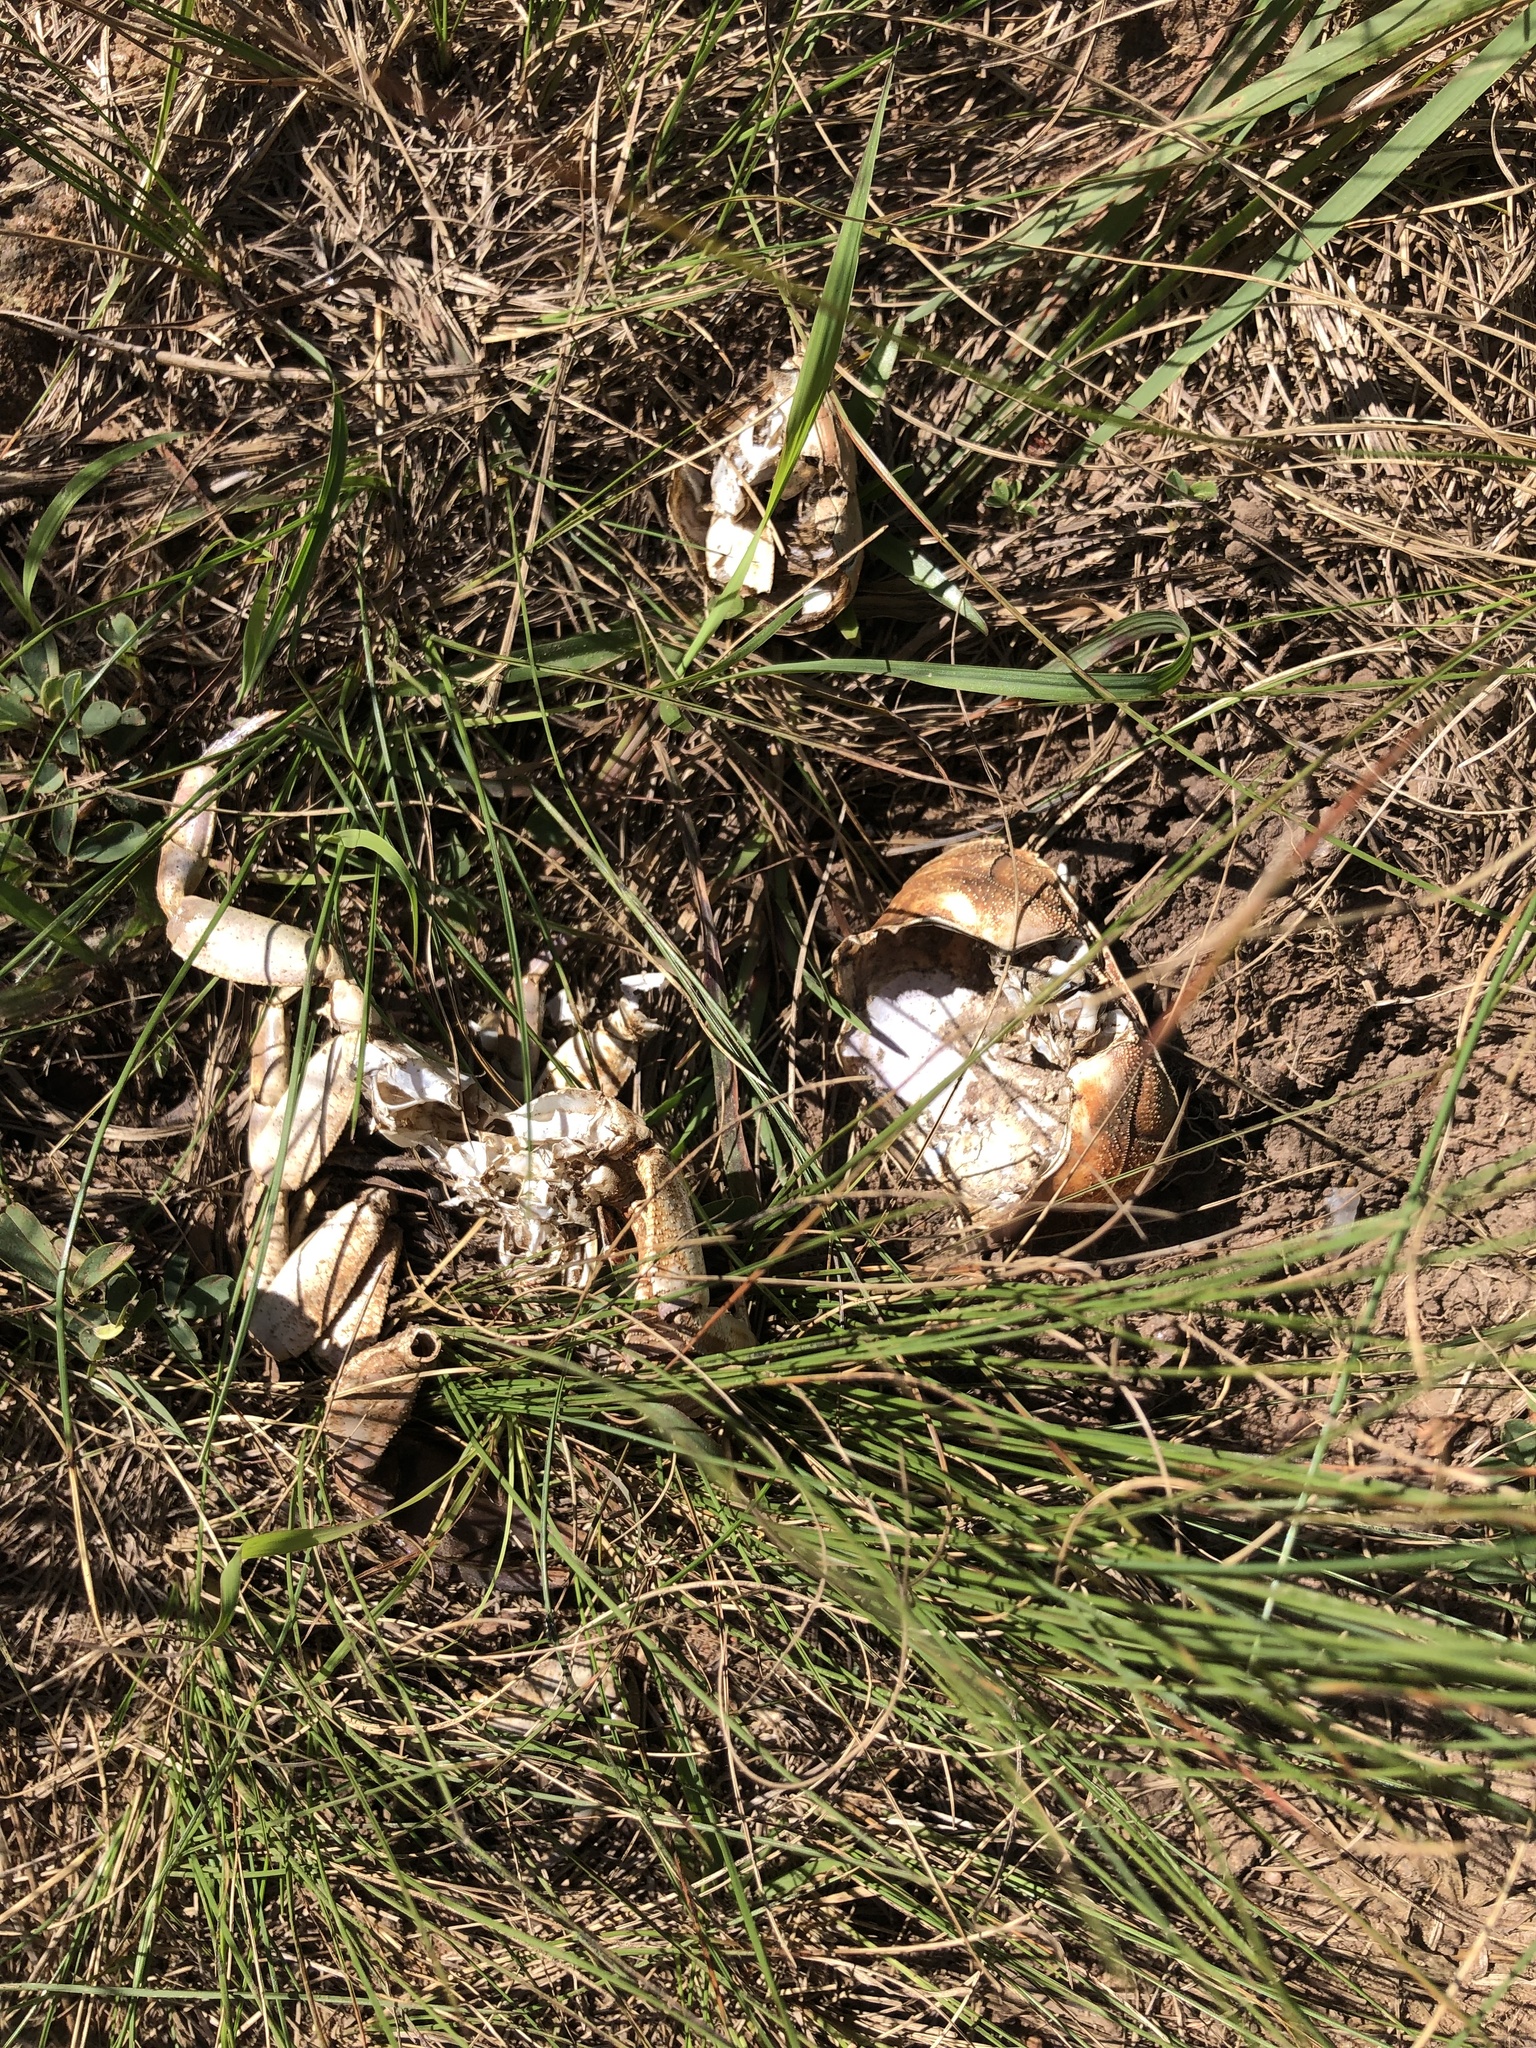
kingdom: Animalia
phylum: Arthropoda
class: Malacostraca
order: Decapoda
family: Potamonautidae
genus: Potamonautes
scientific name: Potamonautes sidneyi
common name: Natal river crab
